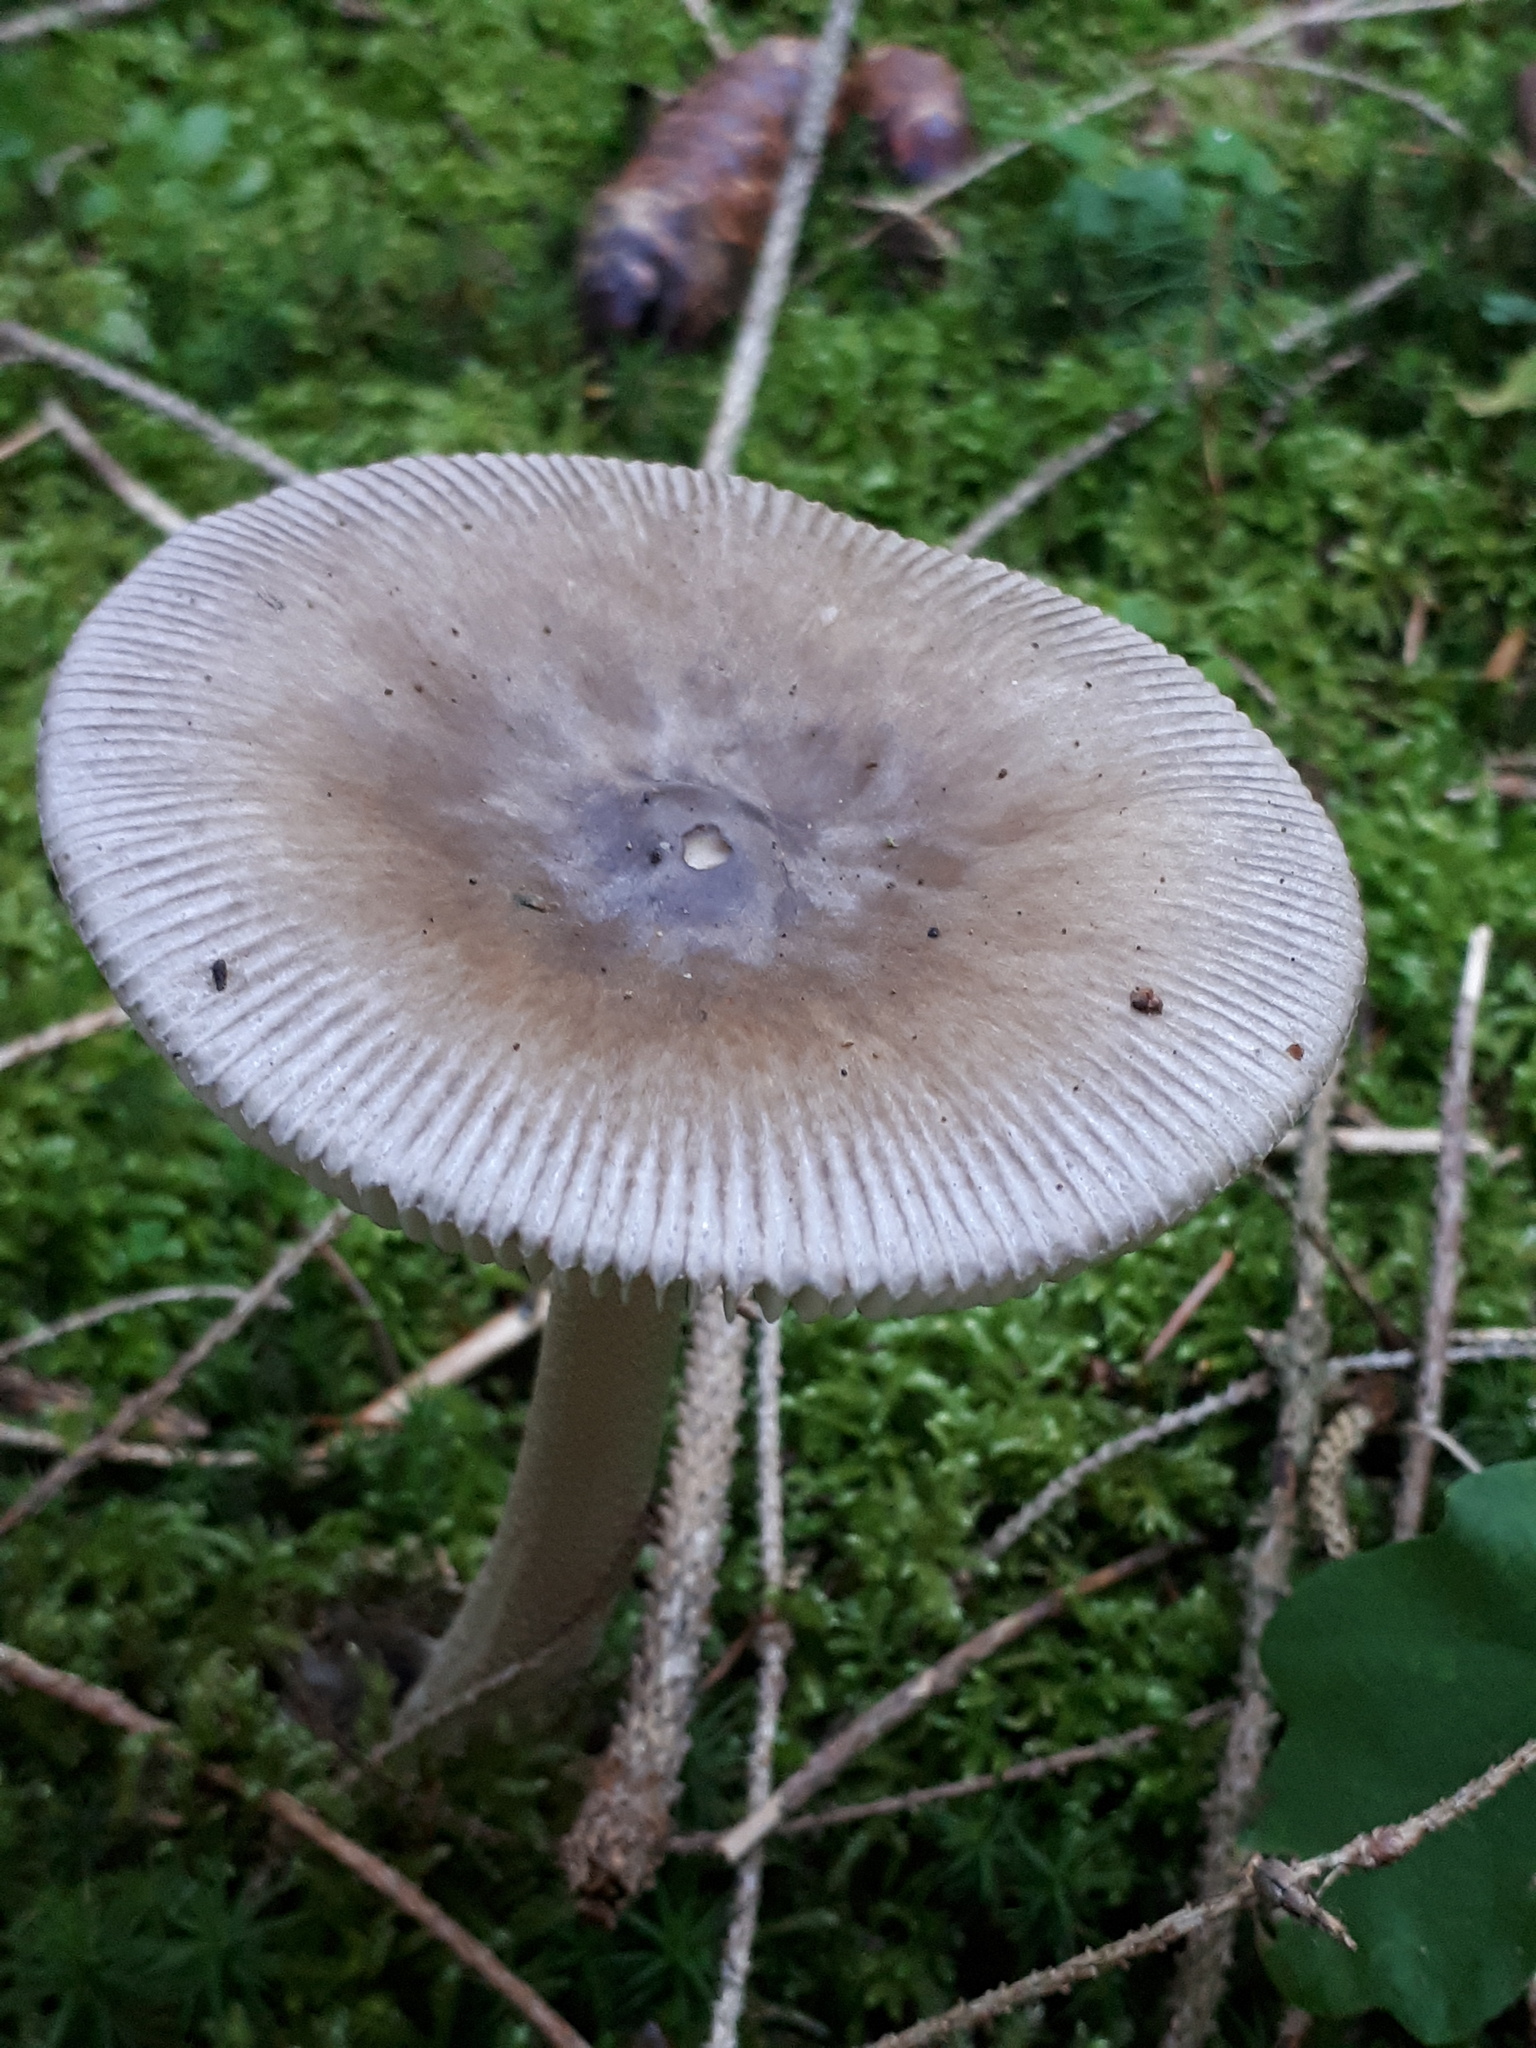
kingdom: Fungi
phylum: Basidiomycota
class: Agaricomycetes
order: Agaricales
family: Amanitaceae
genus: Amanita
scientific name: Amanita submembranacea
